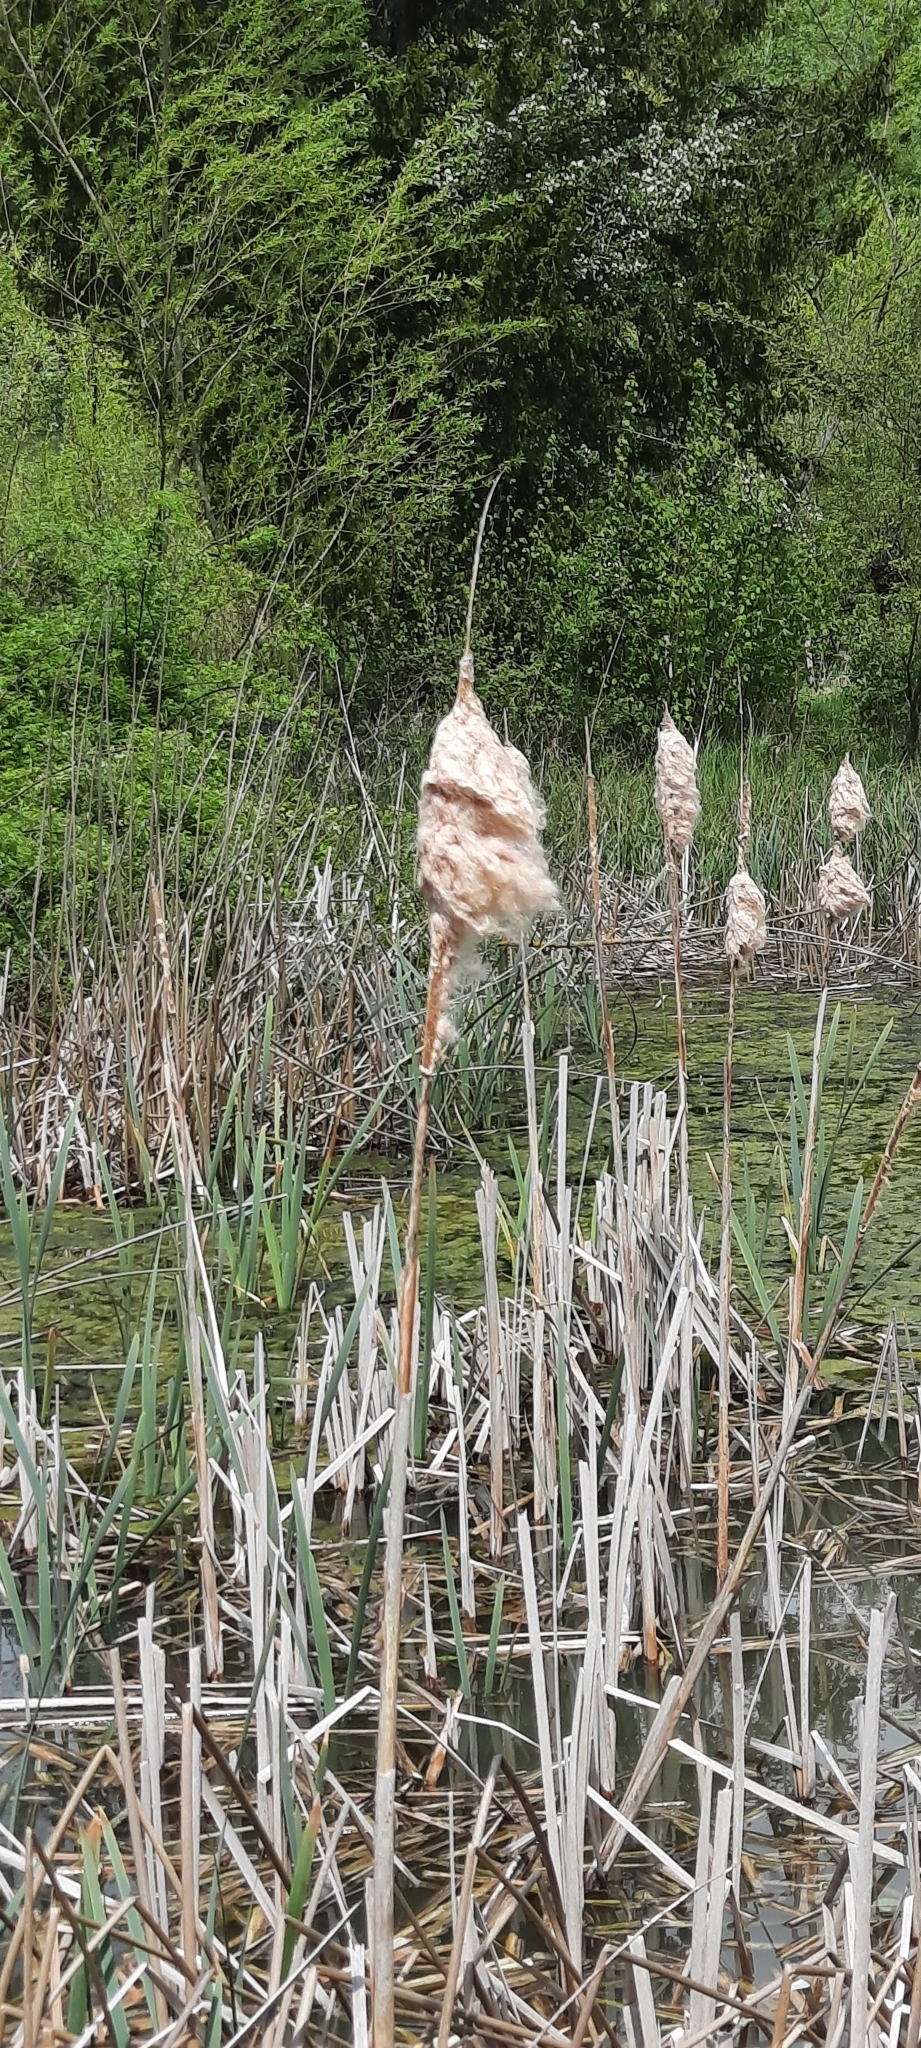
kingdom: Plantae
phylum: Tracheophyta
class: Liliopsida
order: Poales
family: Typhaceae
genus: Typha
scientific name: Typha latifolia
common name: Broadleaf cattail
